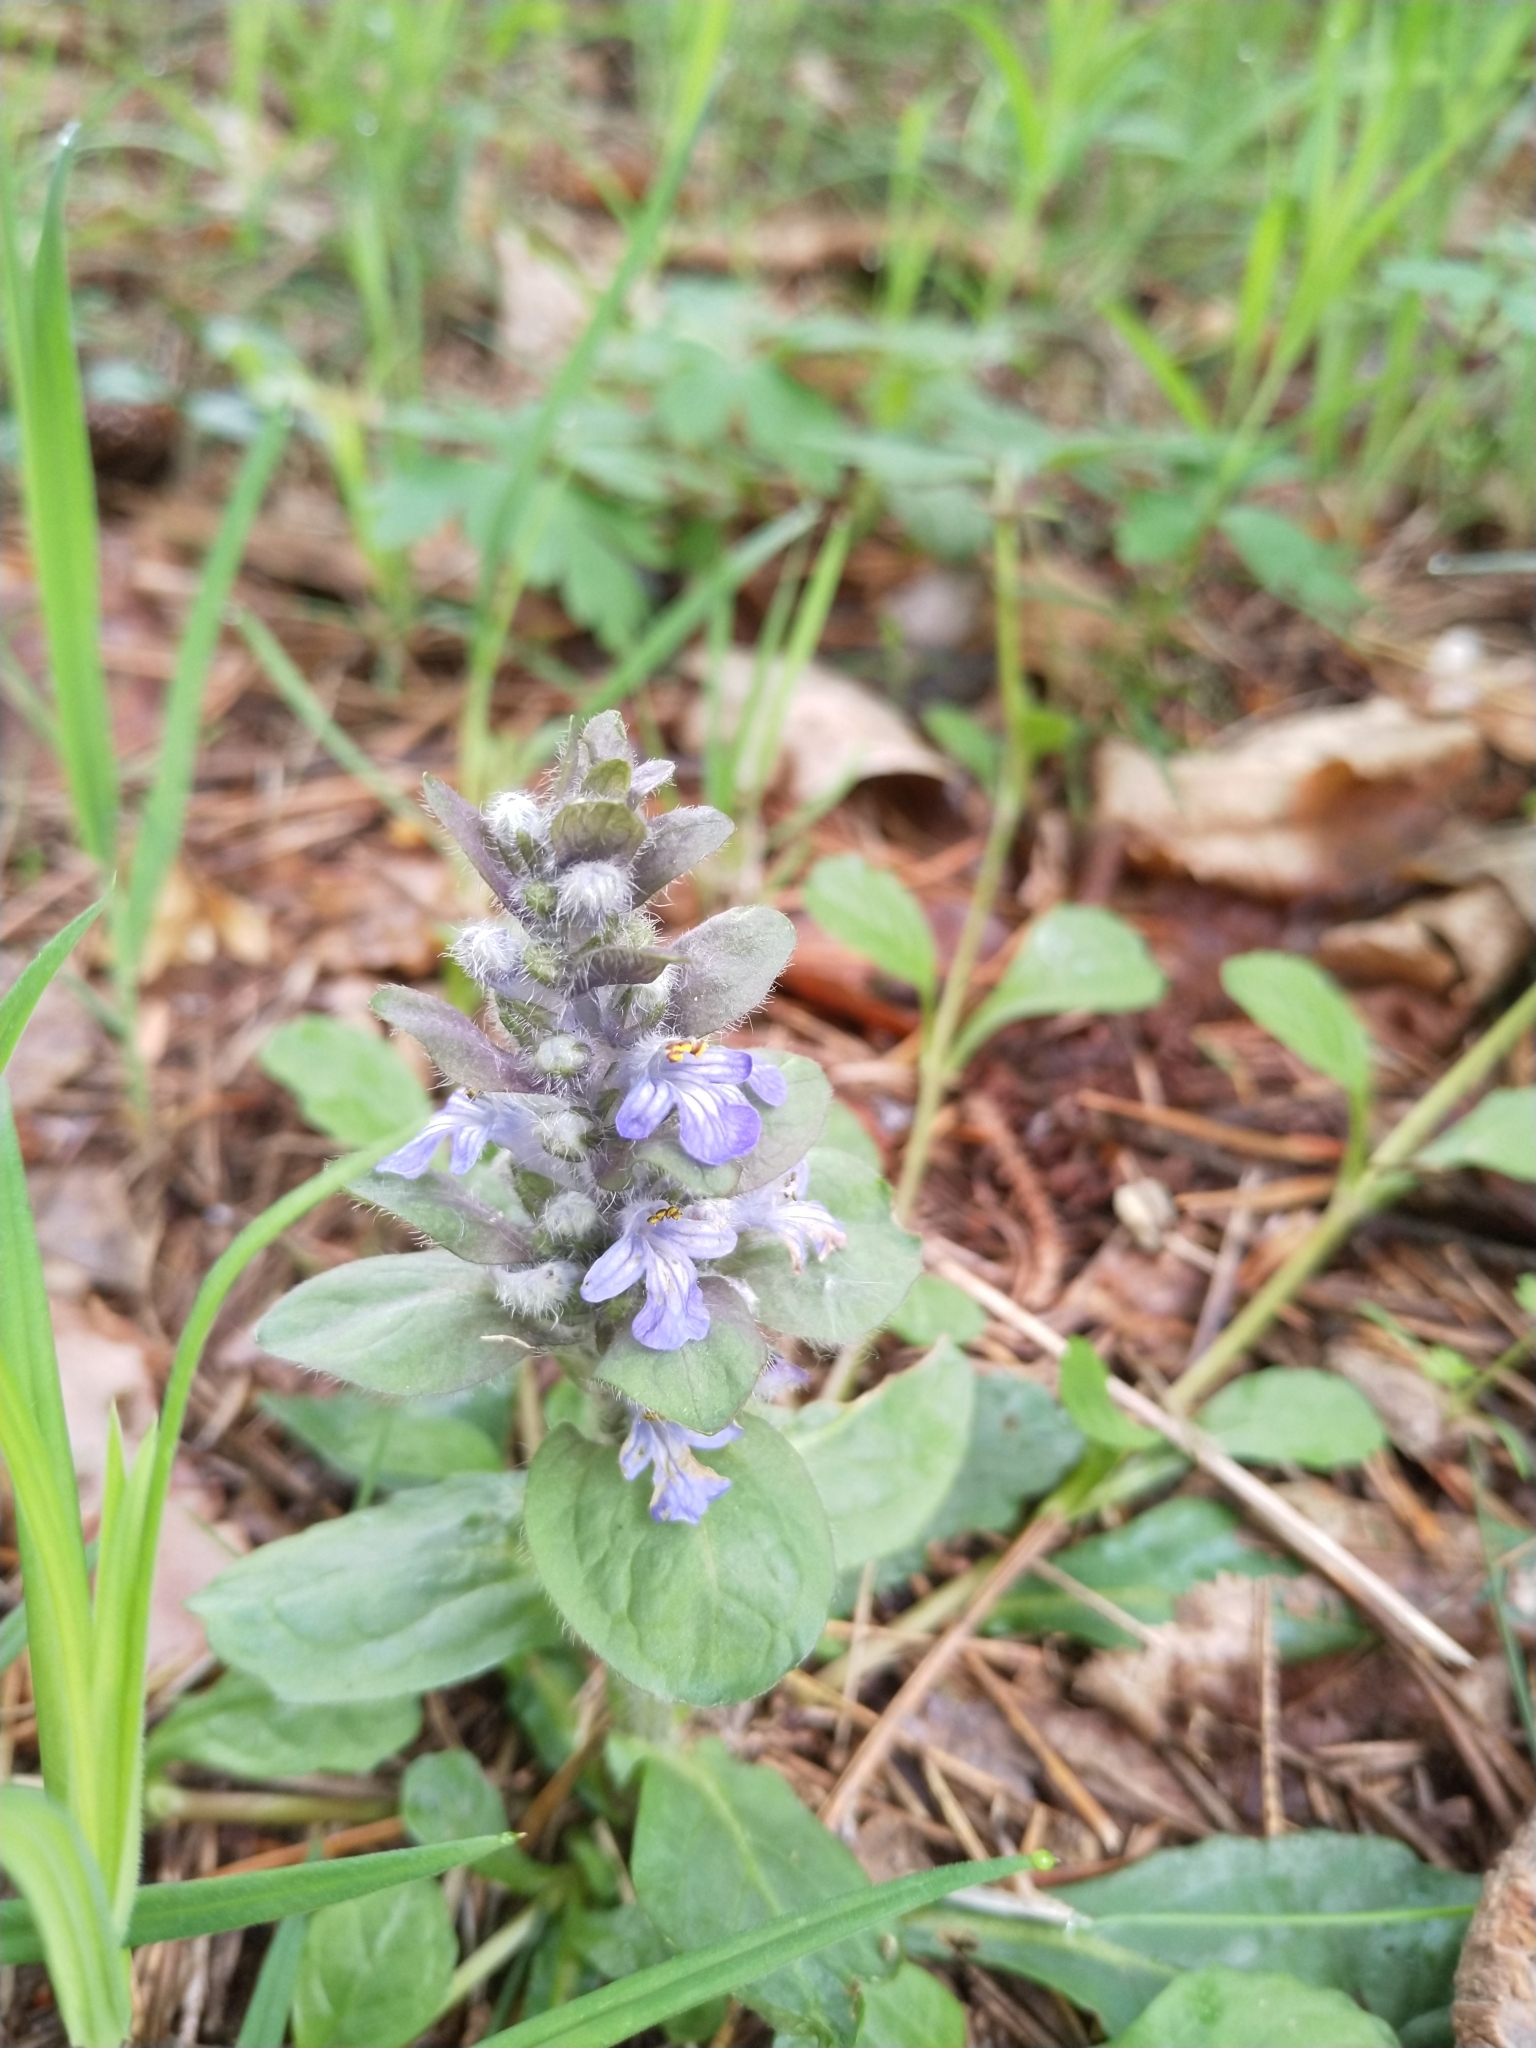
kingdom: Plantae
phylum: Tracheophyta
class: Magnoliopsida
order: Lamiales
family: Lamiaceae
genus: Ajuga
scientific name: Ajuga reptans
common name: Bugle
